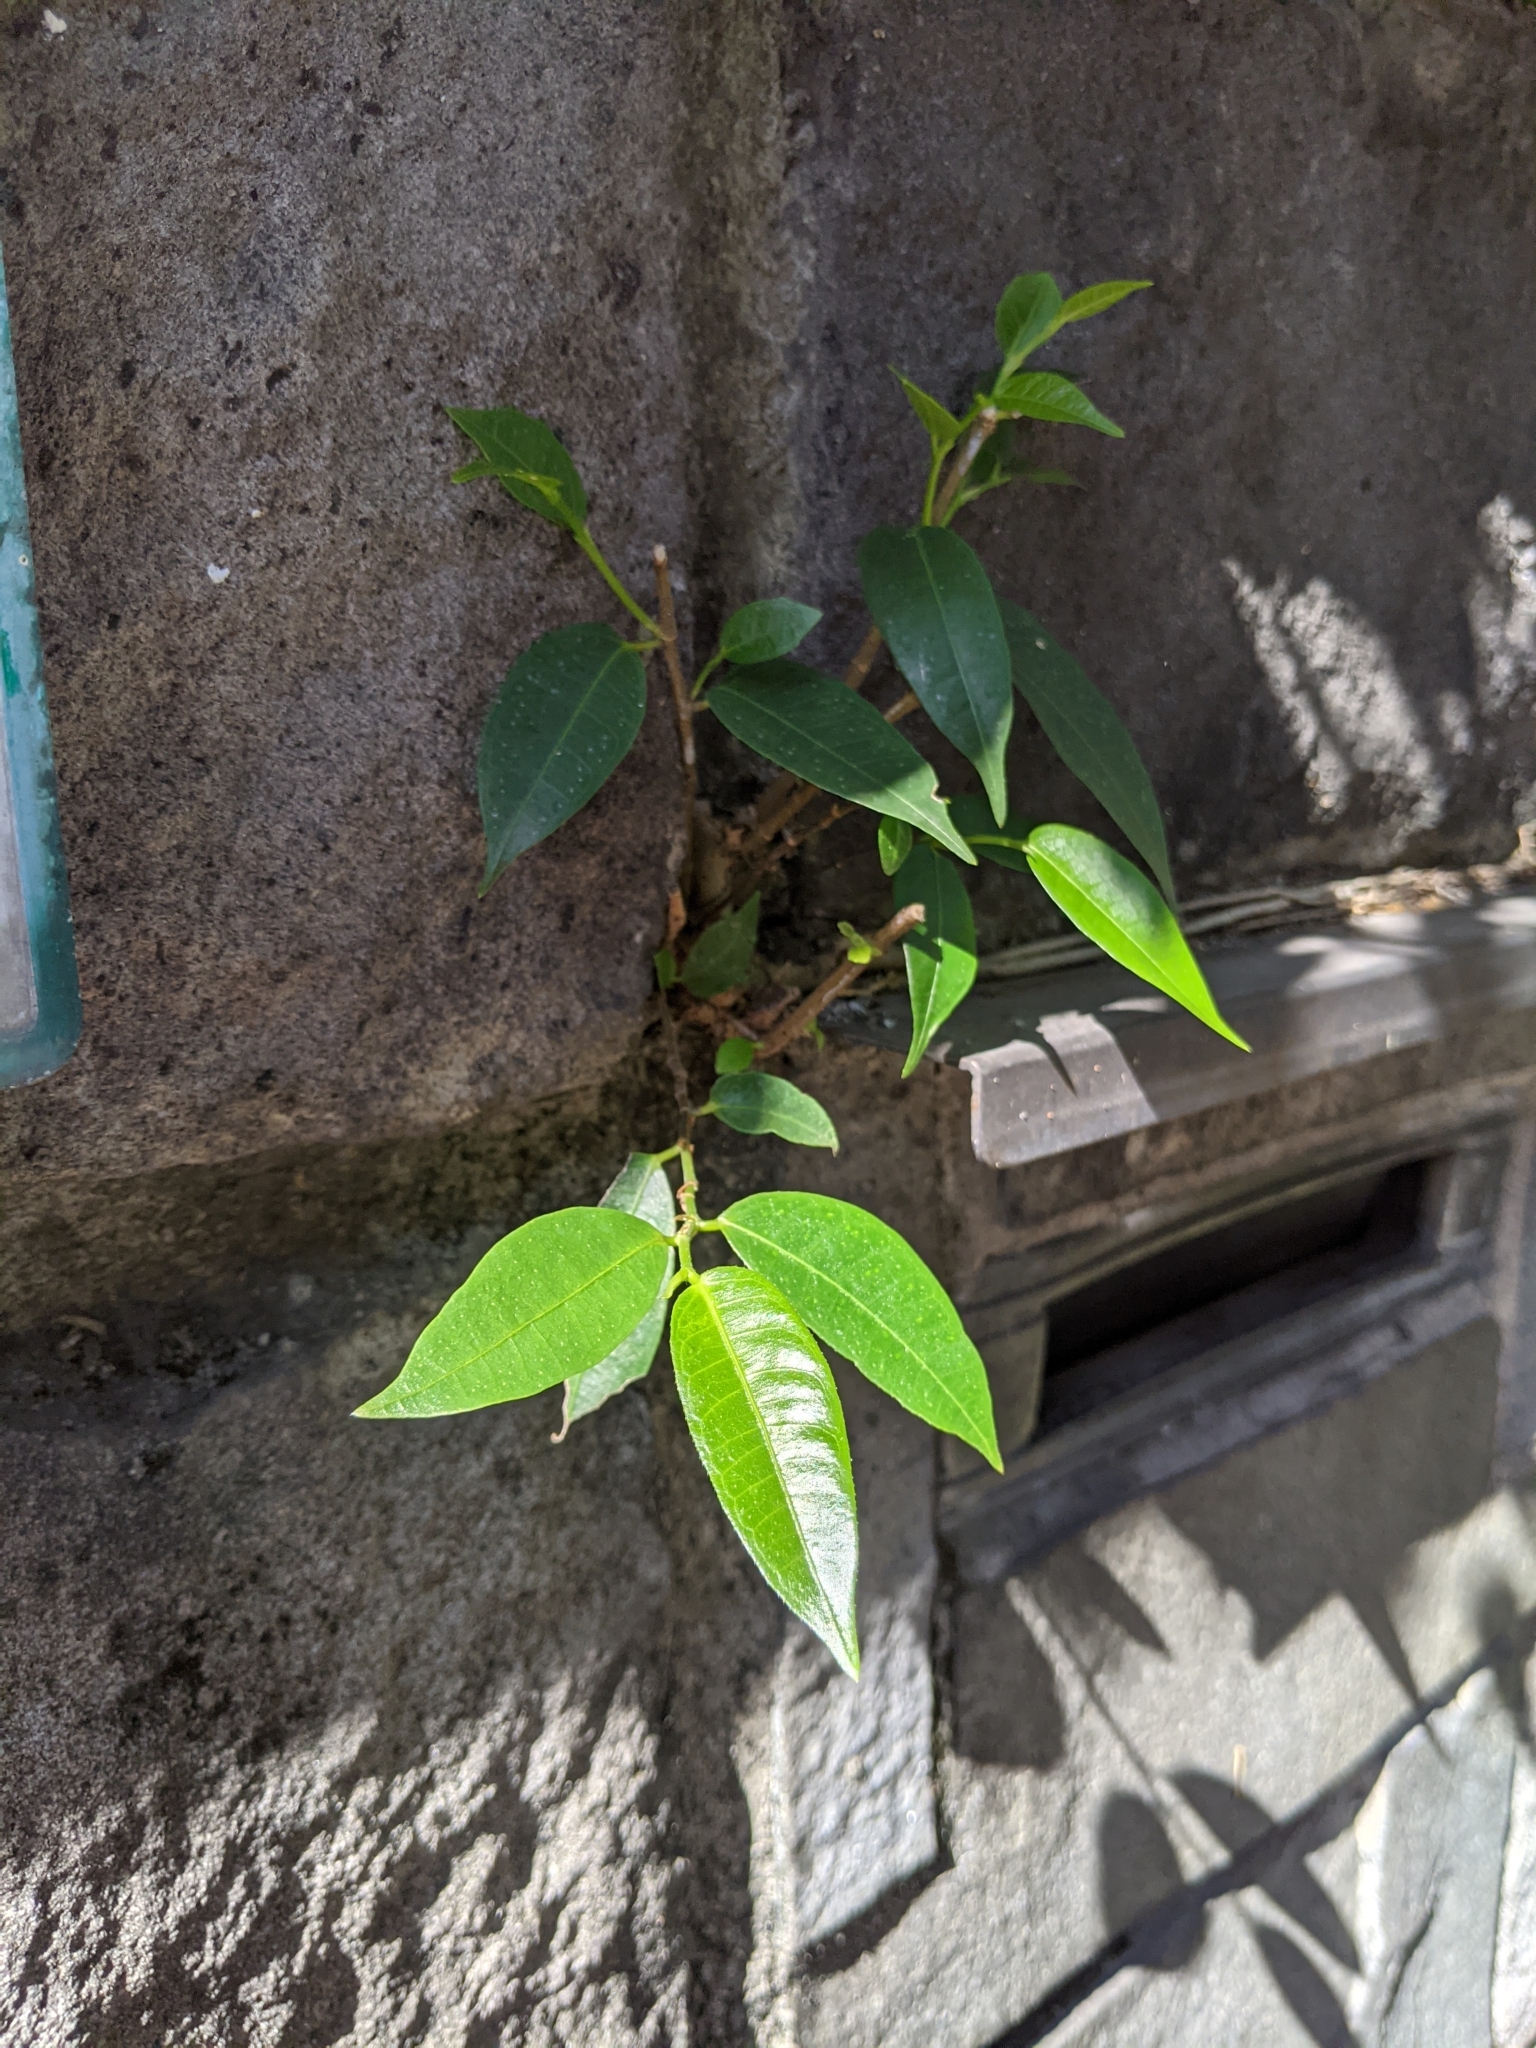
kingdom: Plantae
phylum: Tracheophyta
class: Magnoliopsida
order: Rosales
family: Moraceae
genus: Ficus
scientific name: Ficus virgata
